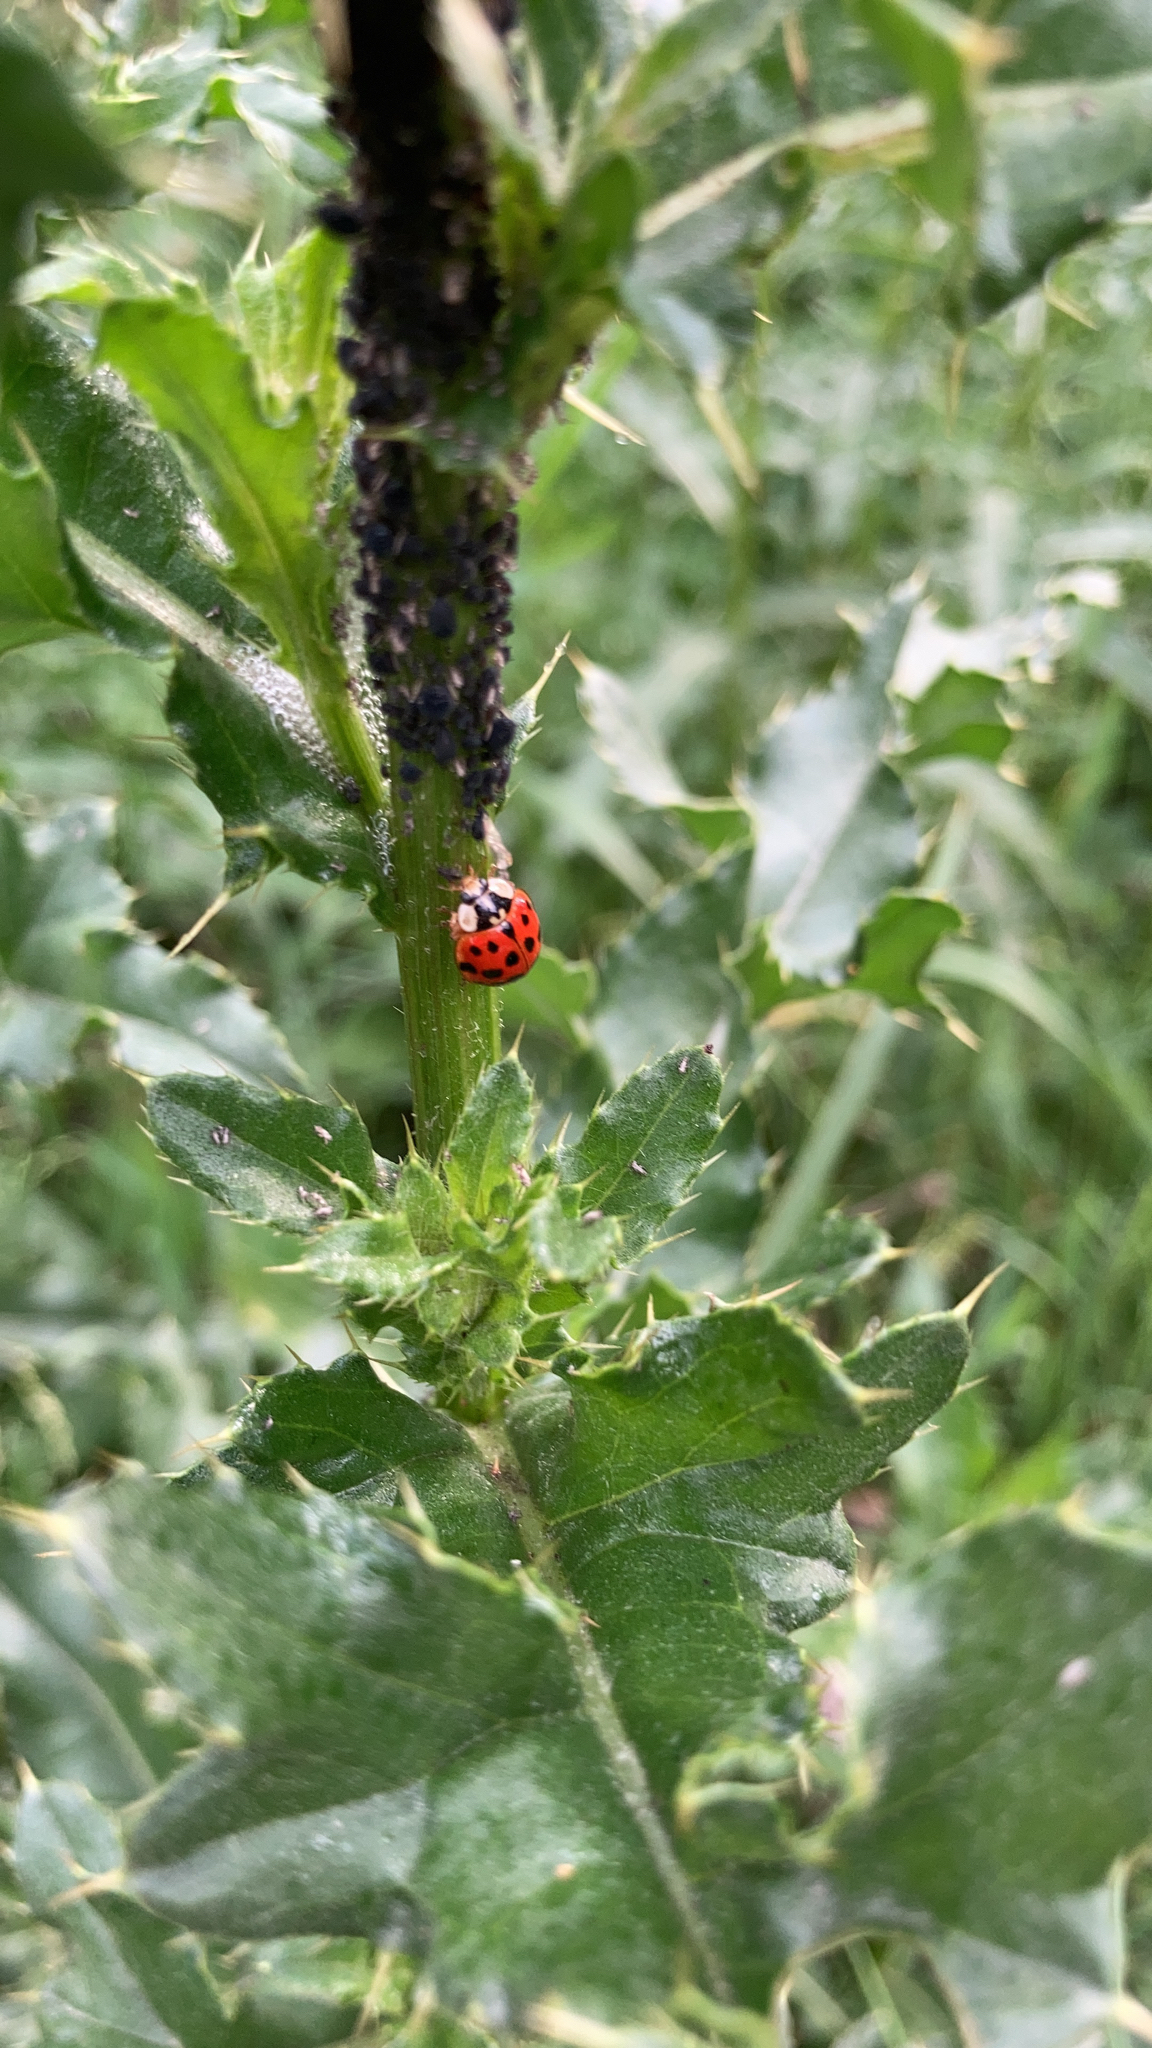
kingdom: Animalia
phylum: Arthropoda
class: Insecta
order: Coleoptera
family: Coccinellidae
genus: Harmonia
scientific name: Harmonia axyridis
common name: Harlequin ladybird
